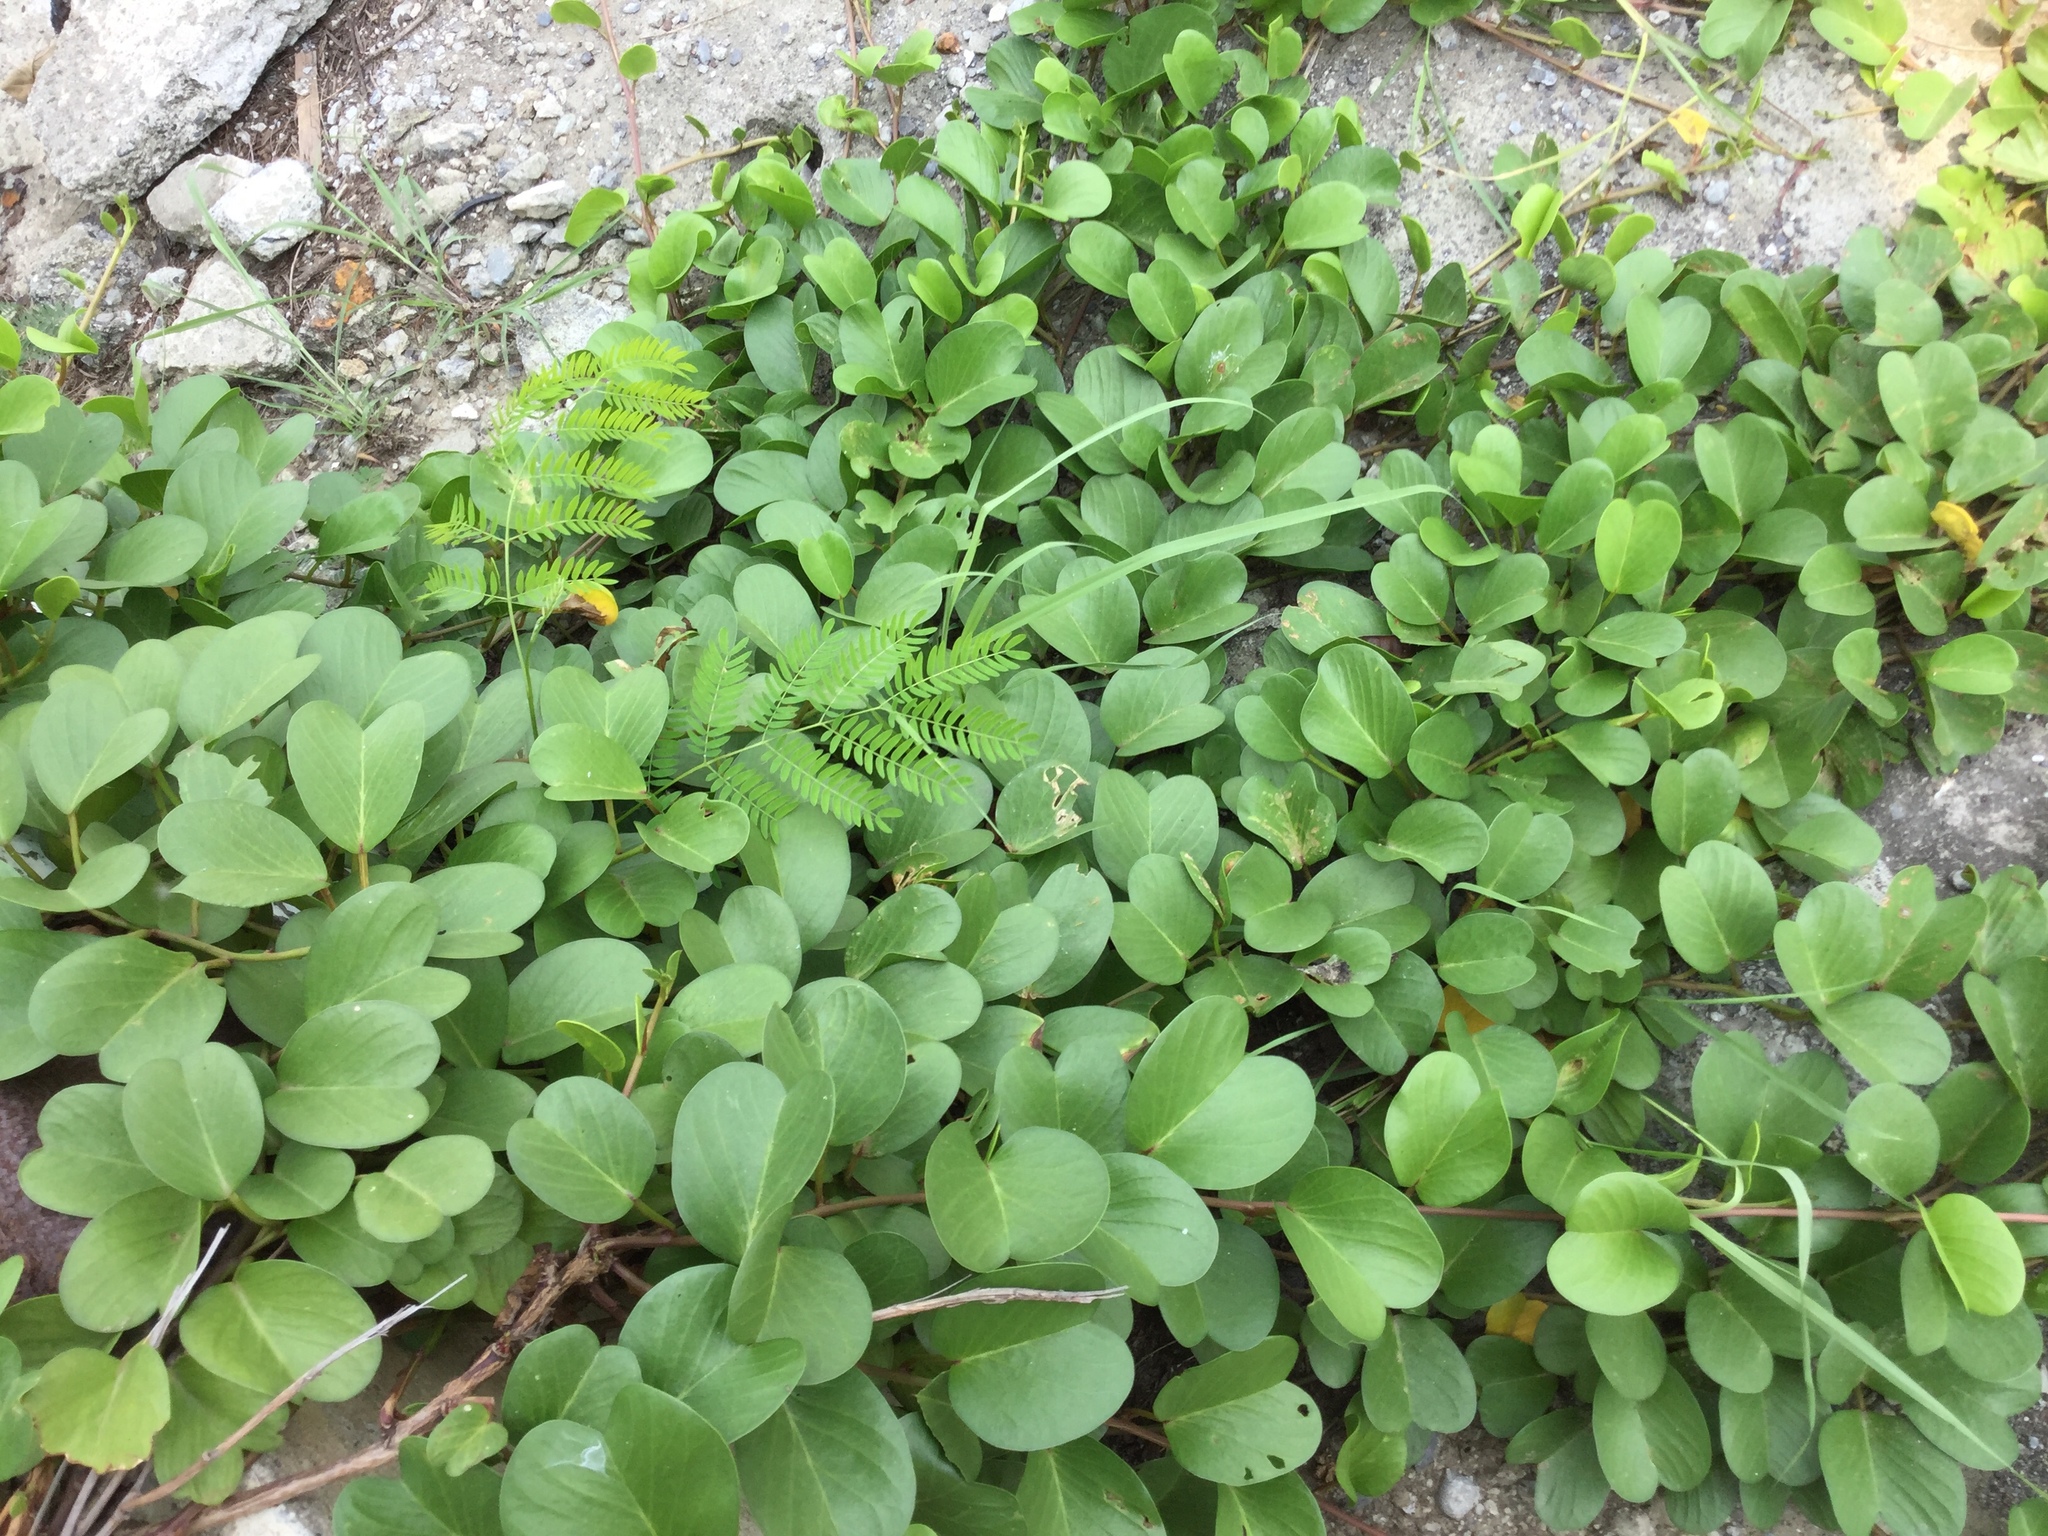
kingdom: Plantae
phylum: Tracheophyta
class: Magnoliopsida
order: Solanales
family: Convolvulaceae
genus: Ipomoea
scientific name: Ipomoea pes-caprae
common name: Beach morning glory
